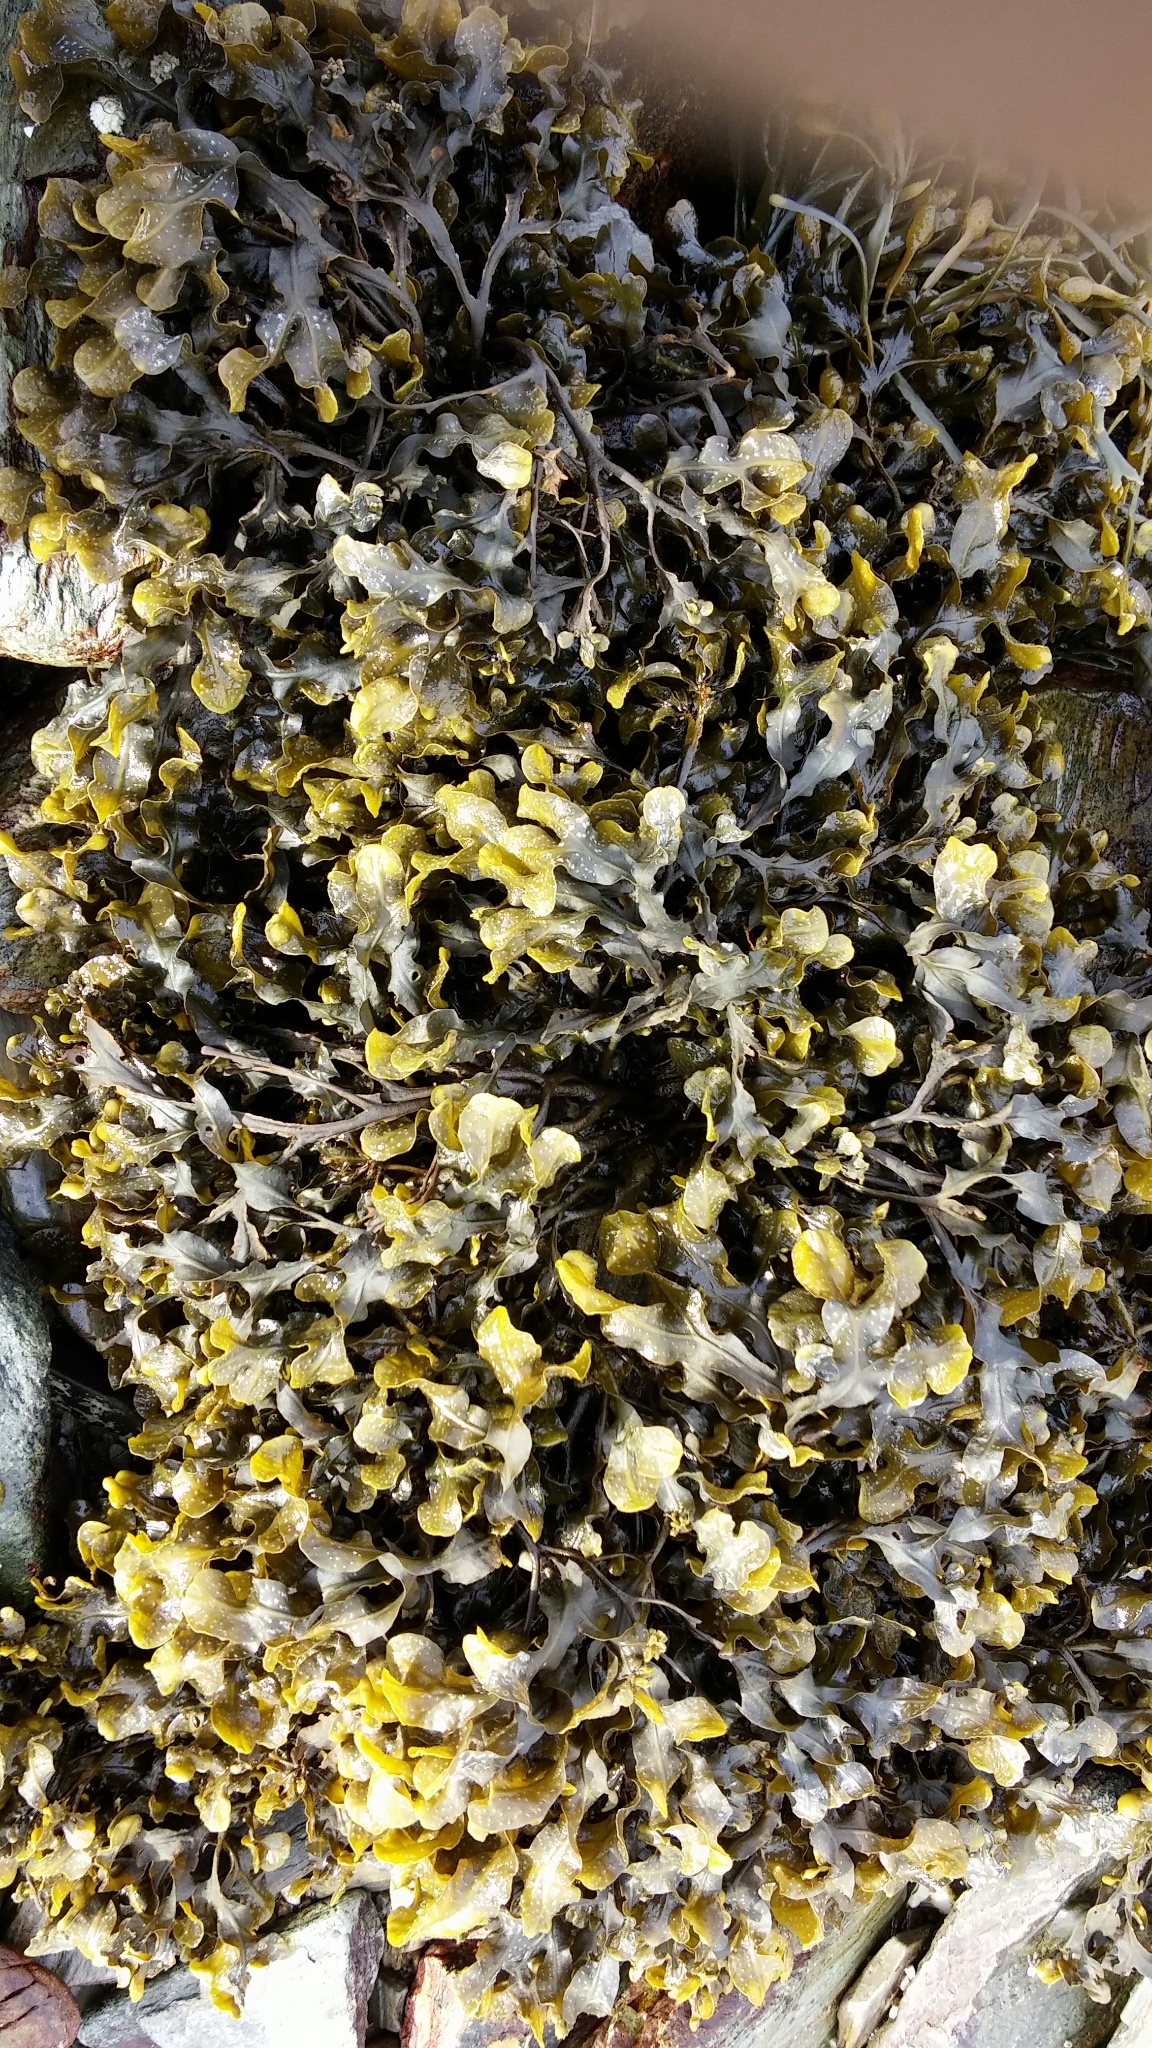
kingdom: Chromista
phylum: Ochrophyta
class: Phaeophyceae
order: Fucales
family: Fucaceae
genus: Fucus
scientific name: Fucus spiralis
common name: Spiral wrack
